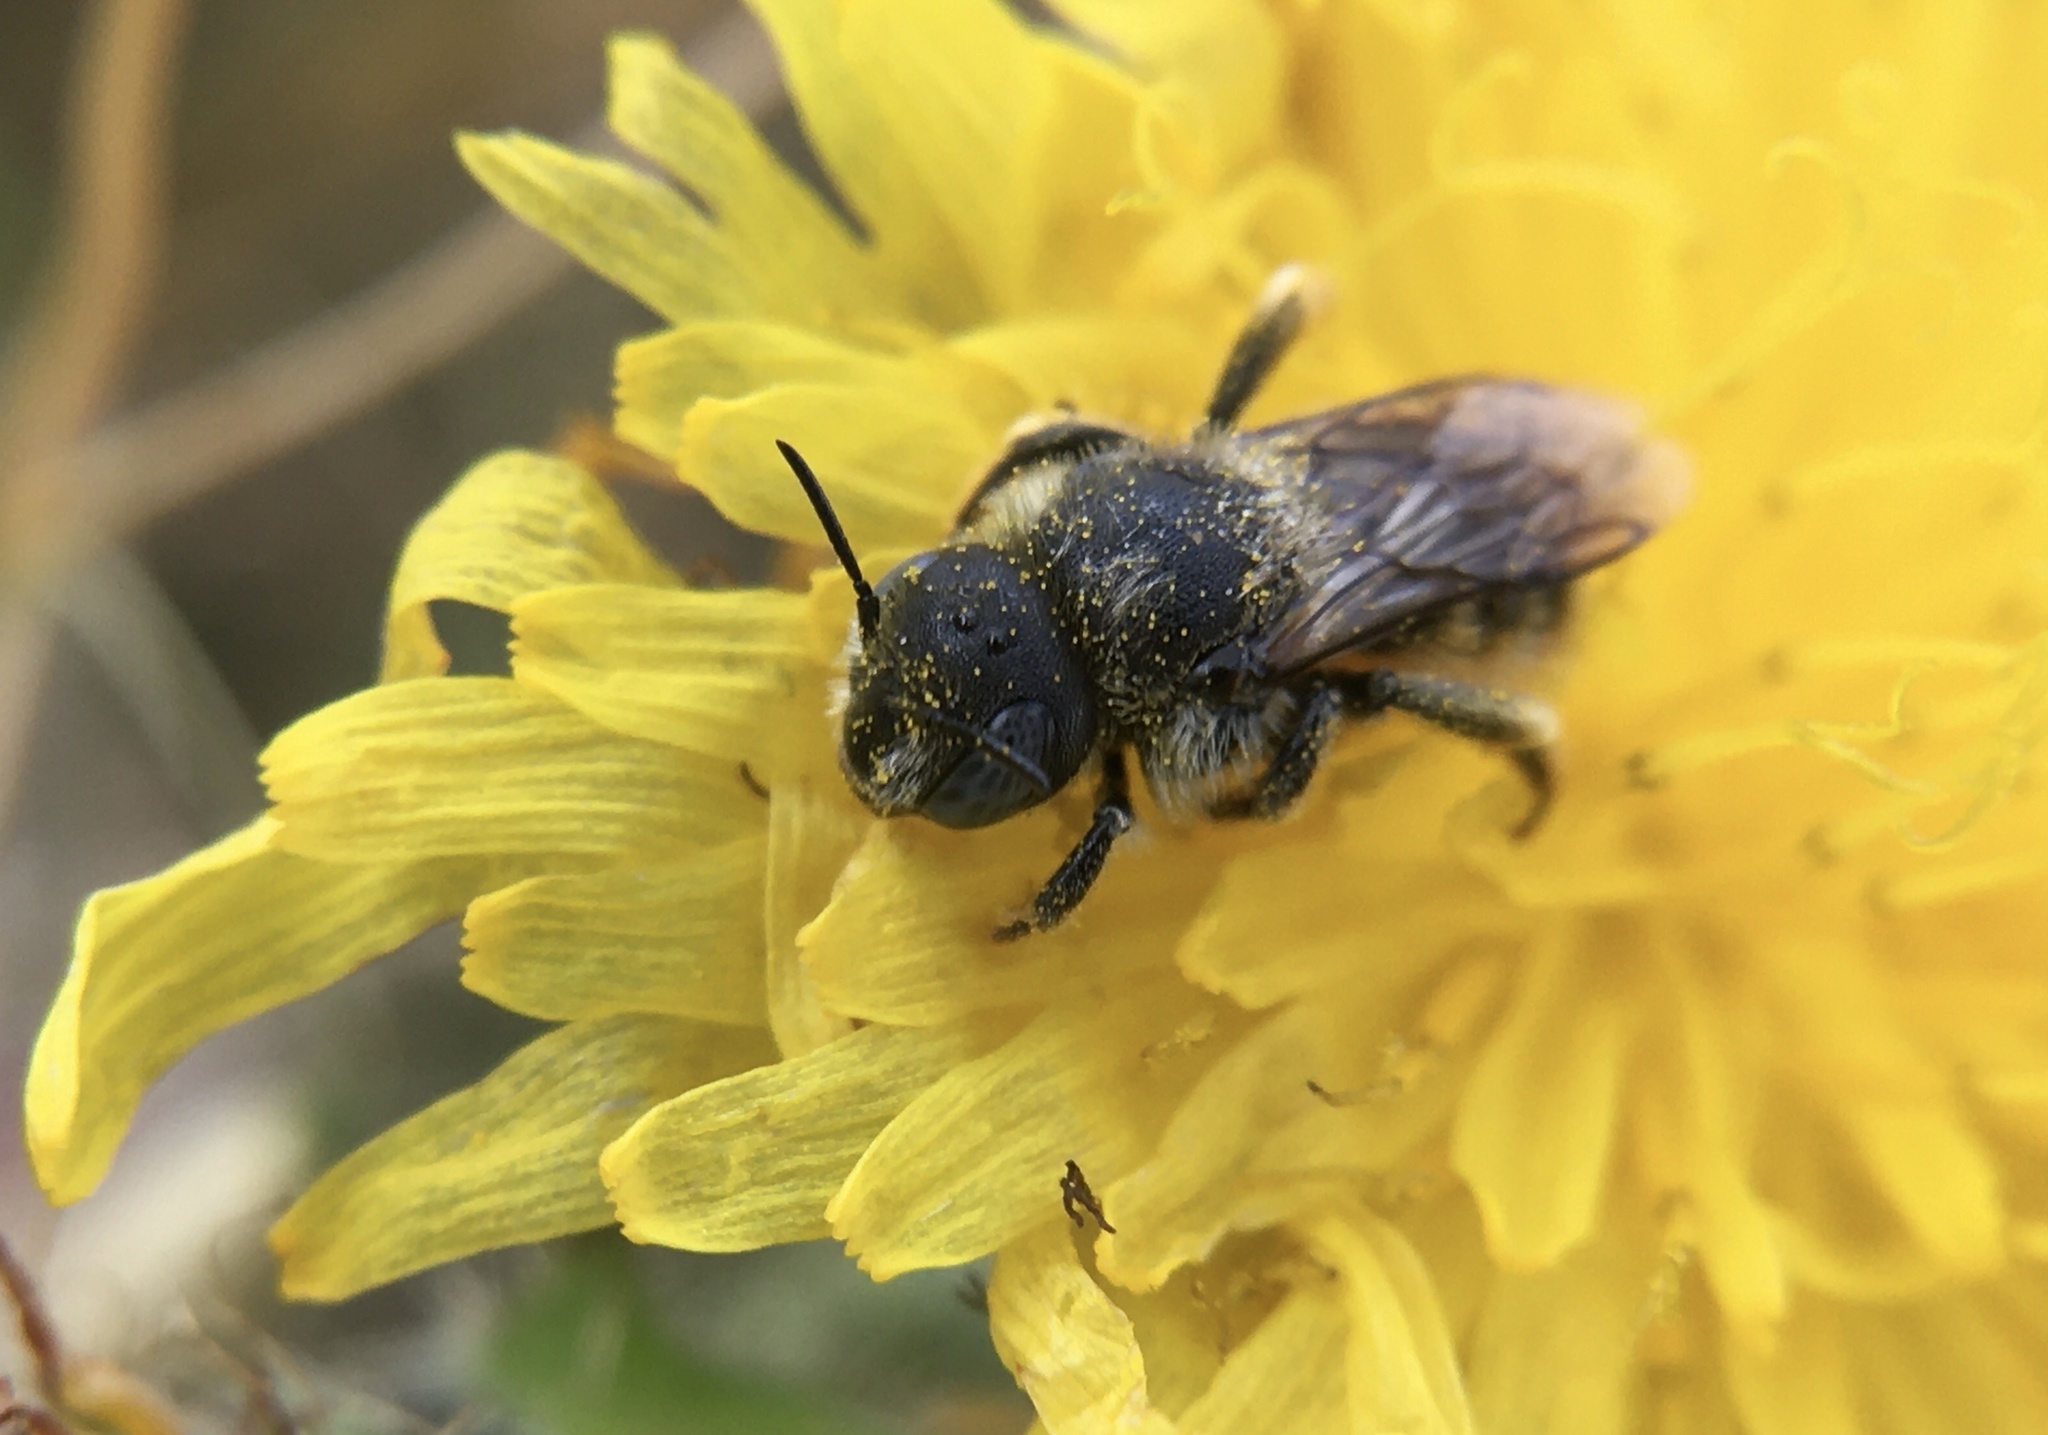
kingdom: Animalia
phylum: Arthropoda
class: Insecta
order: Hymenoptera
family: Megachilidae
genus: Osmia
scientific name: Osmia spinulosa
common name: Spined mason bee
